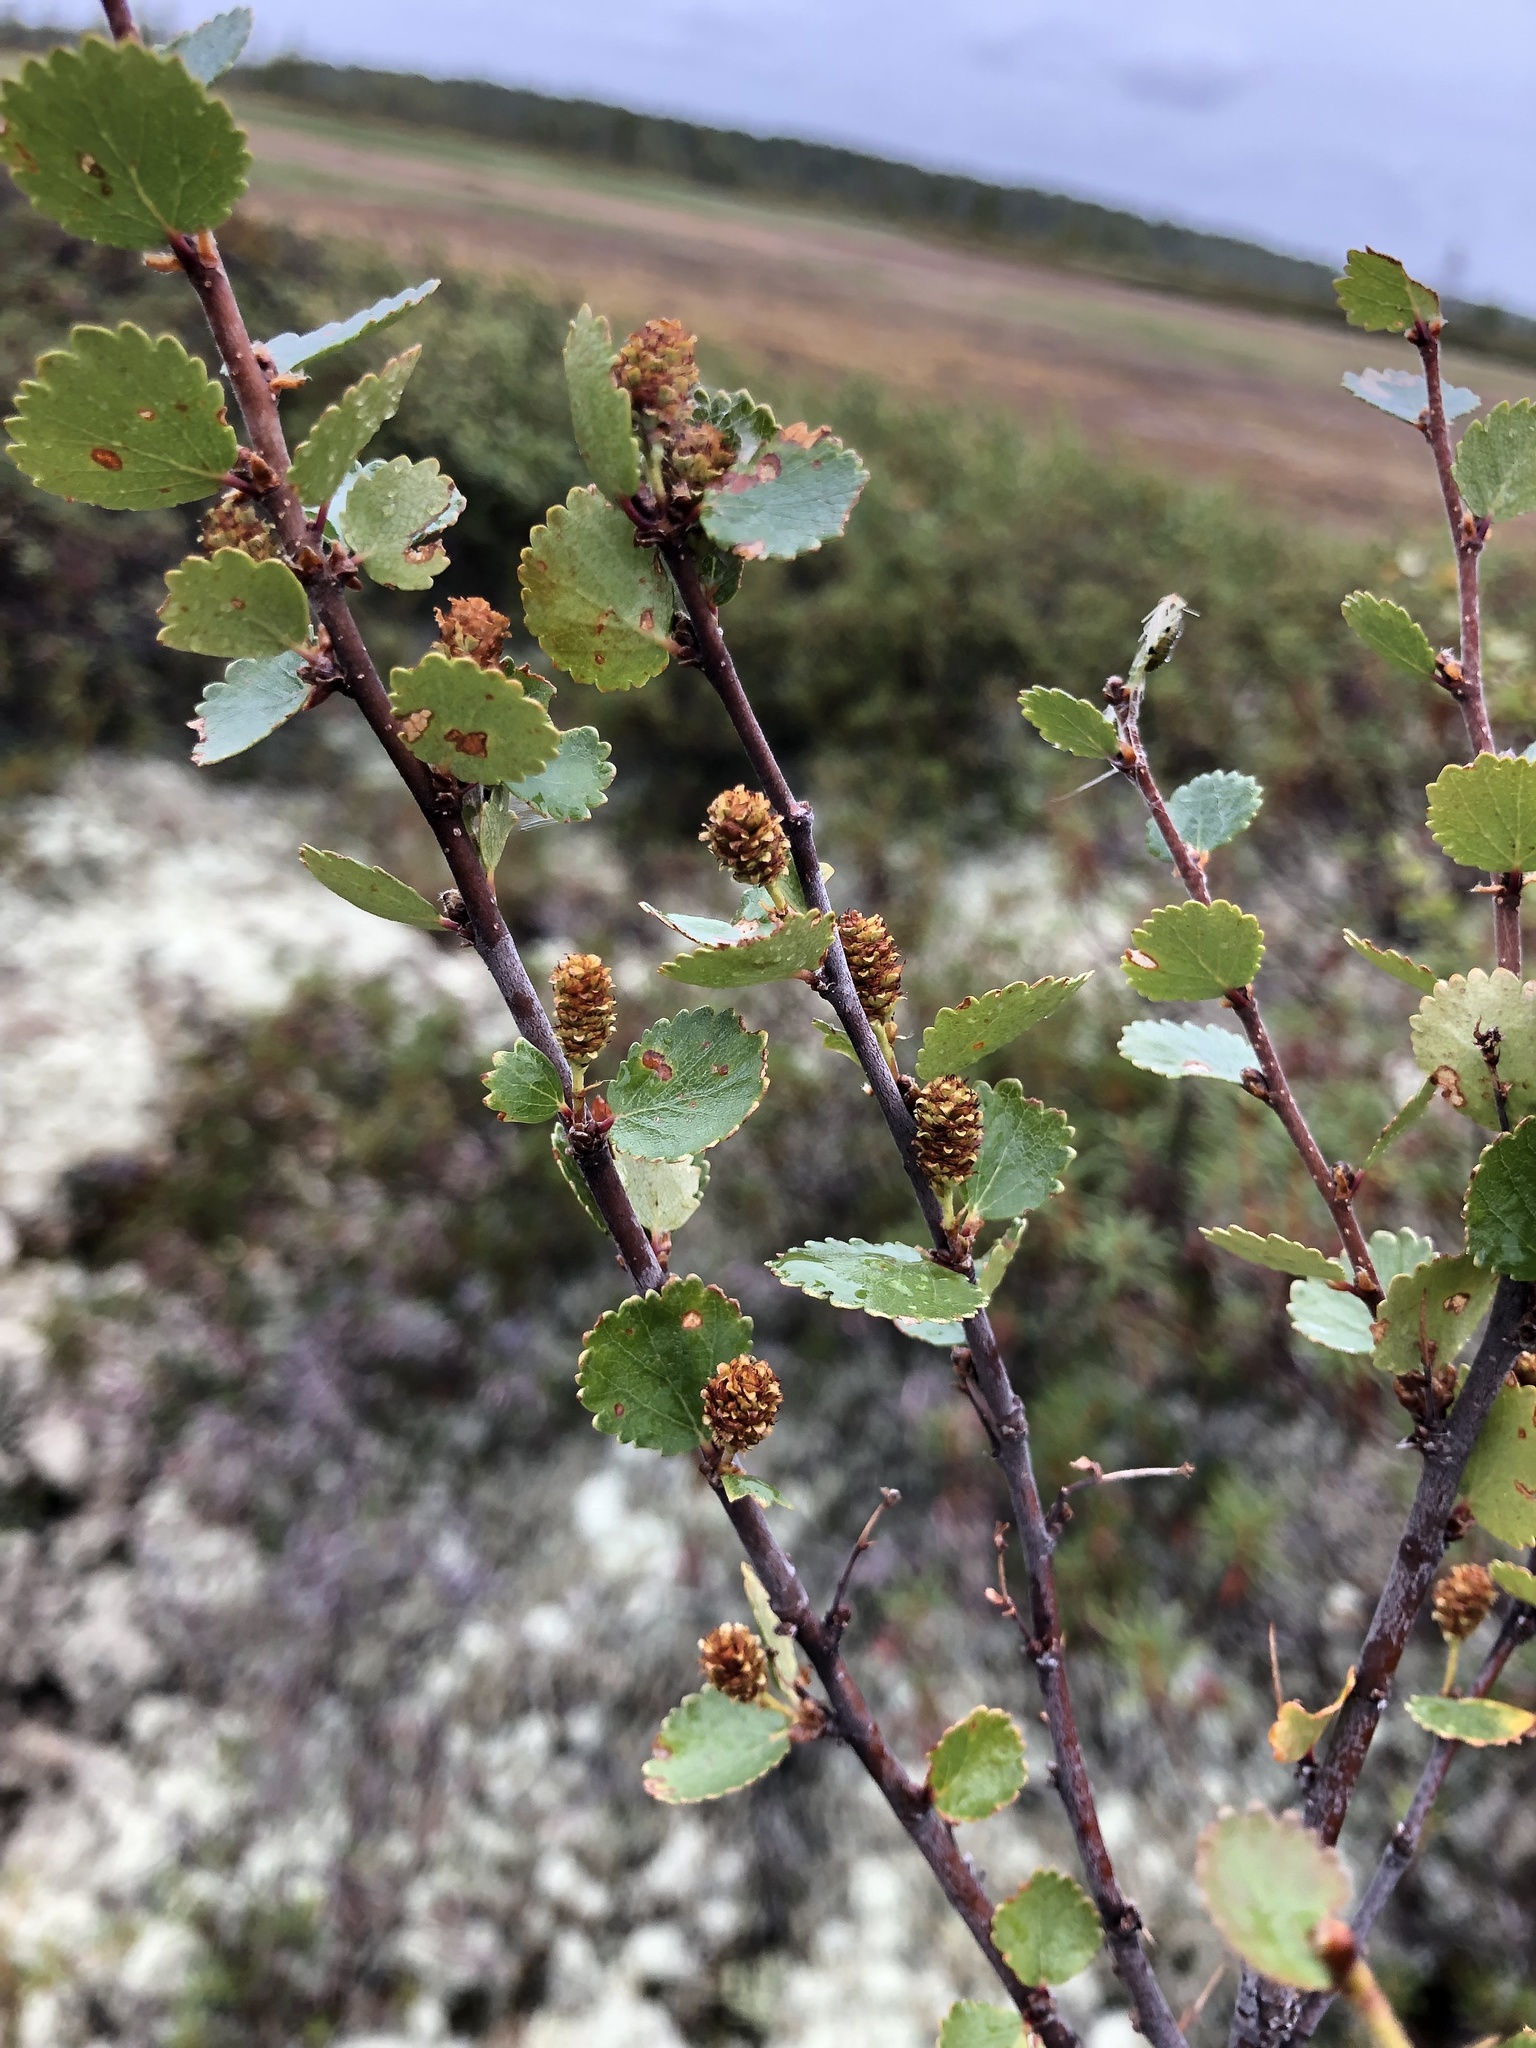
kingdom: Plantae
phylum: Tracheophyta
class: Magnoliopsida
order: Fagales
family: Betulaceae
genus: Betula
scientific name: Betula nana
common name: Arctic dwarf birch
